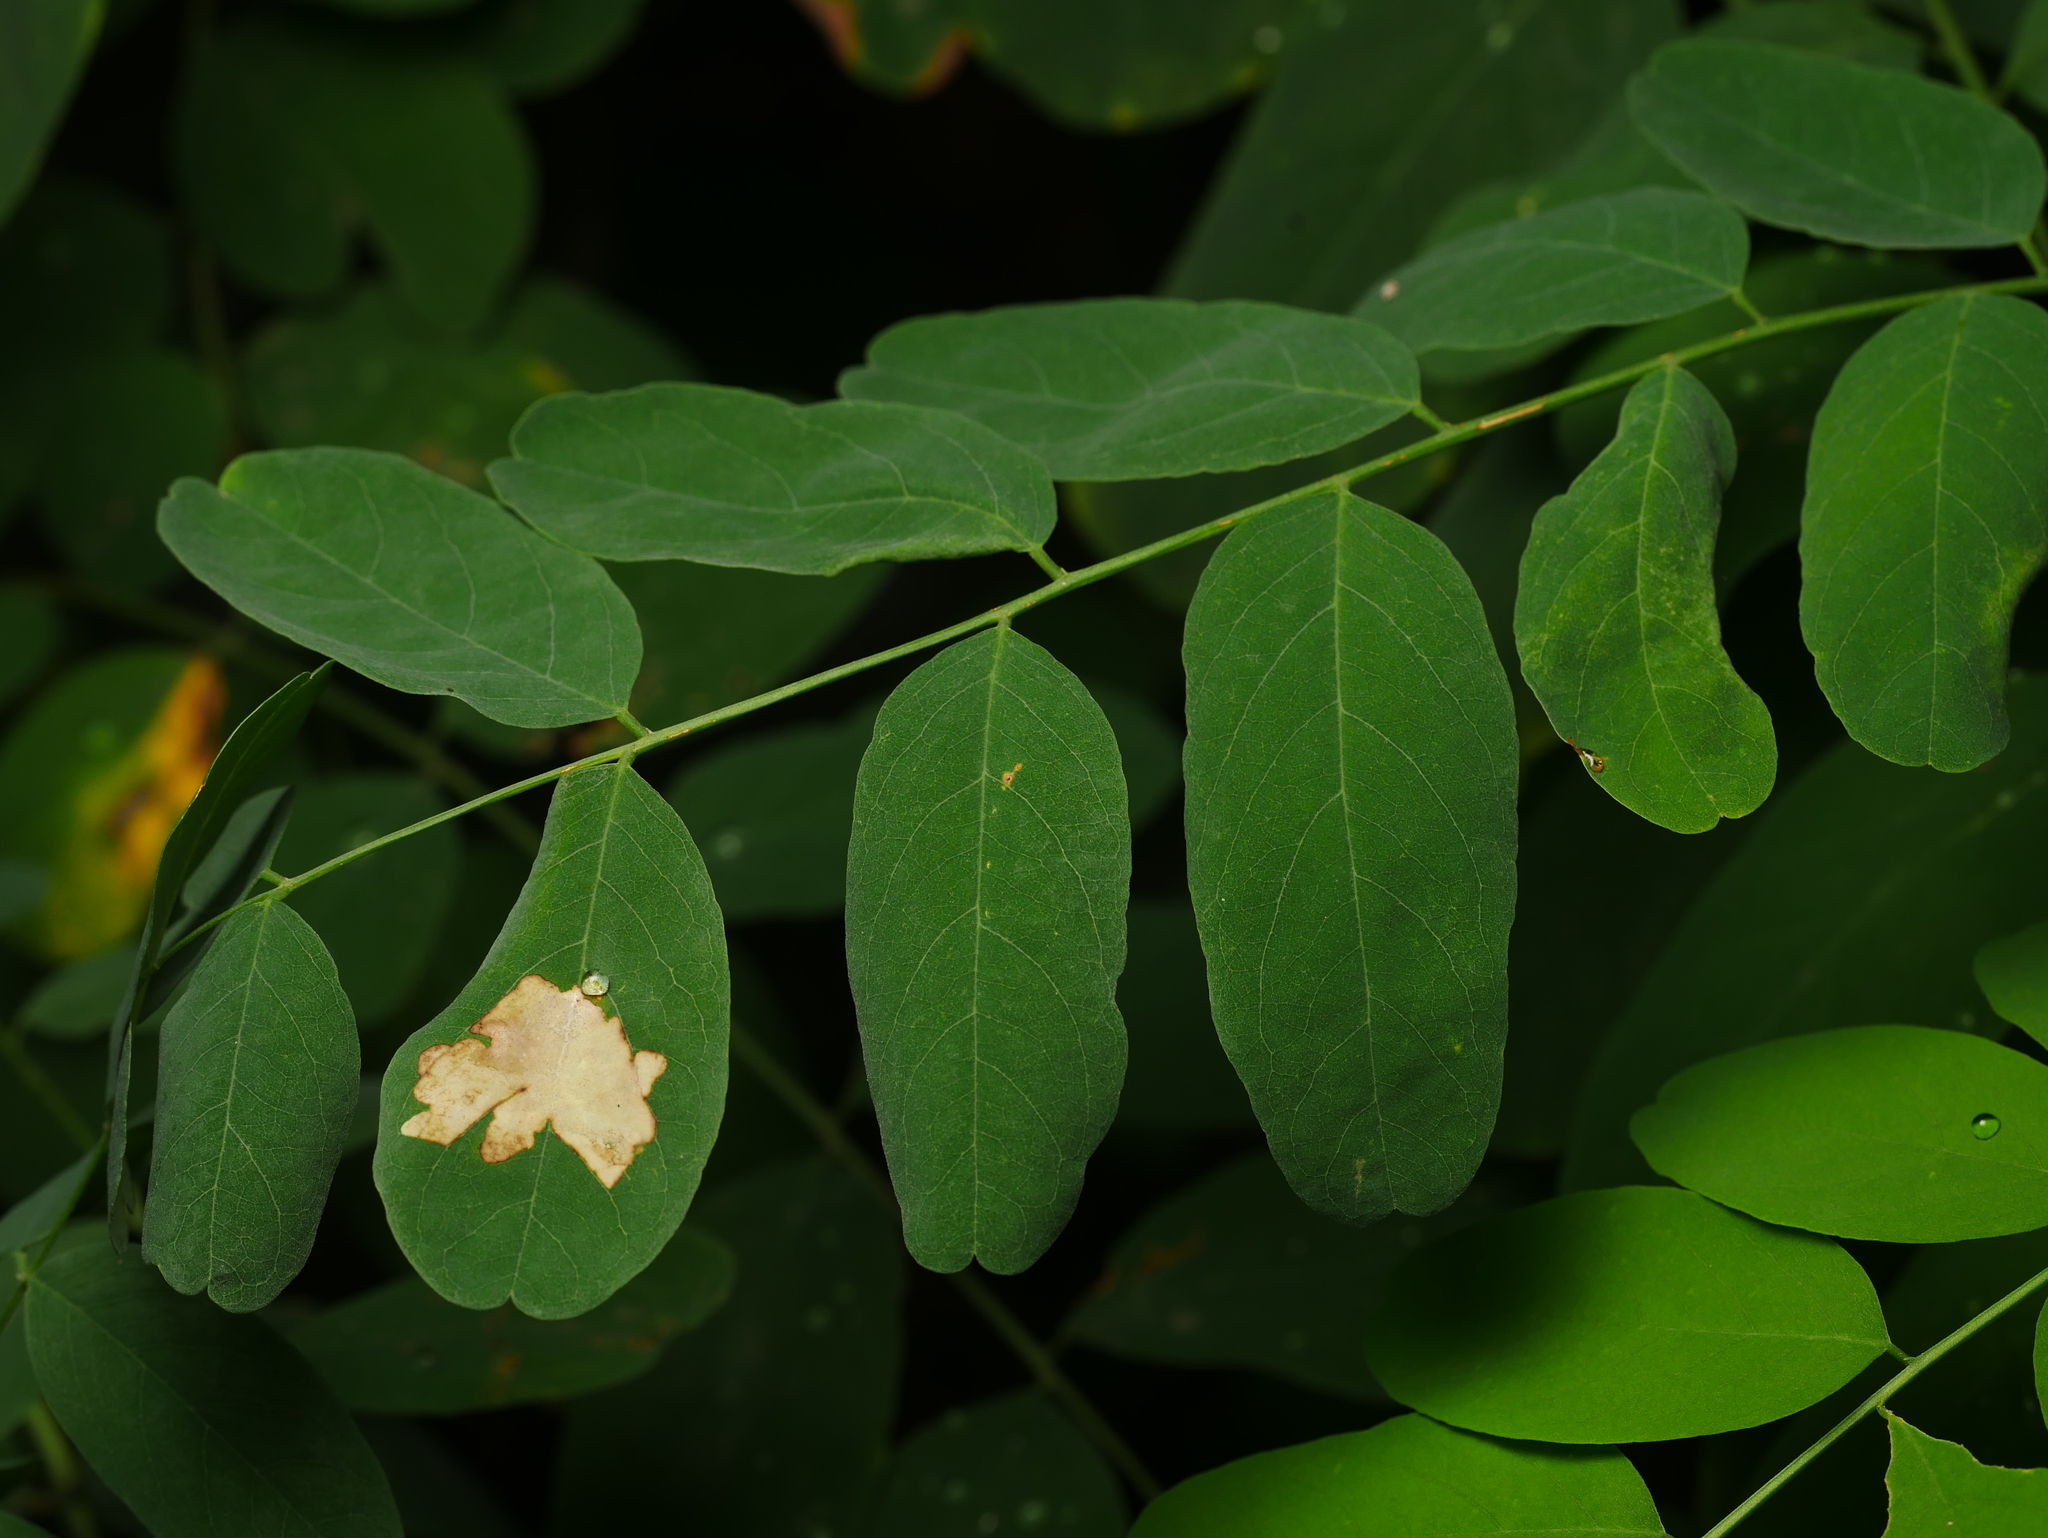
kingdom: Plantae
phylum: Tracheophyta
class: Magnoliopsida
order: Fabales
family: Fabaceae
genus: Robinia
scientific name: Robinia pseudoacacia
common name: Black locust
